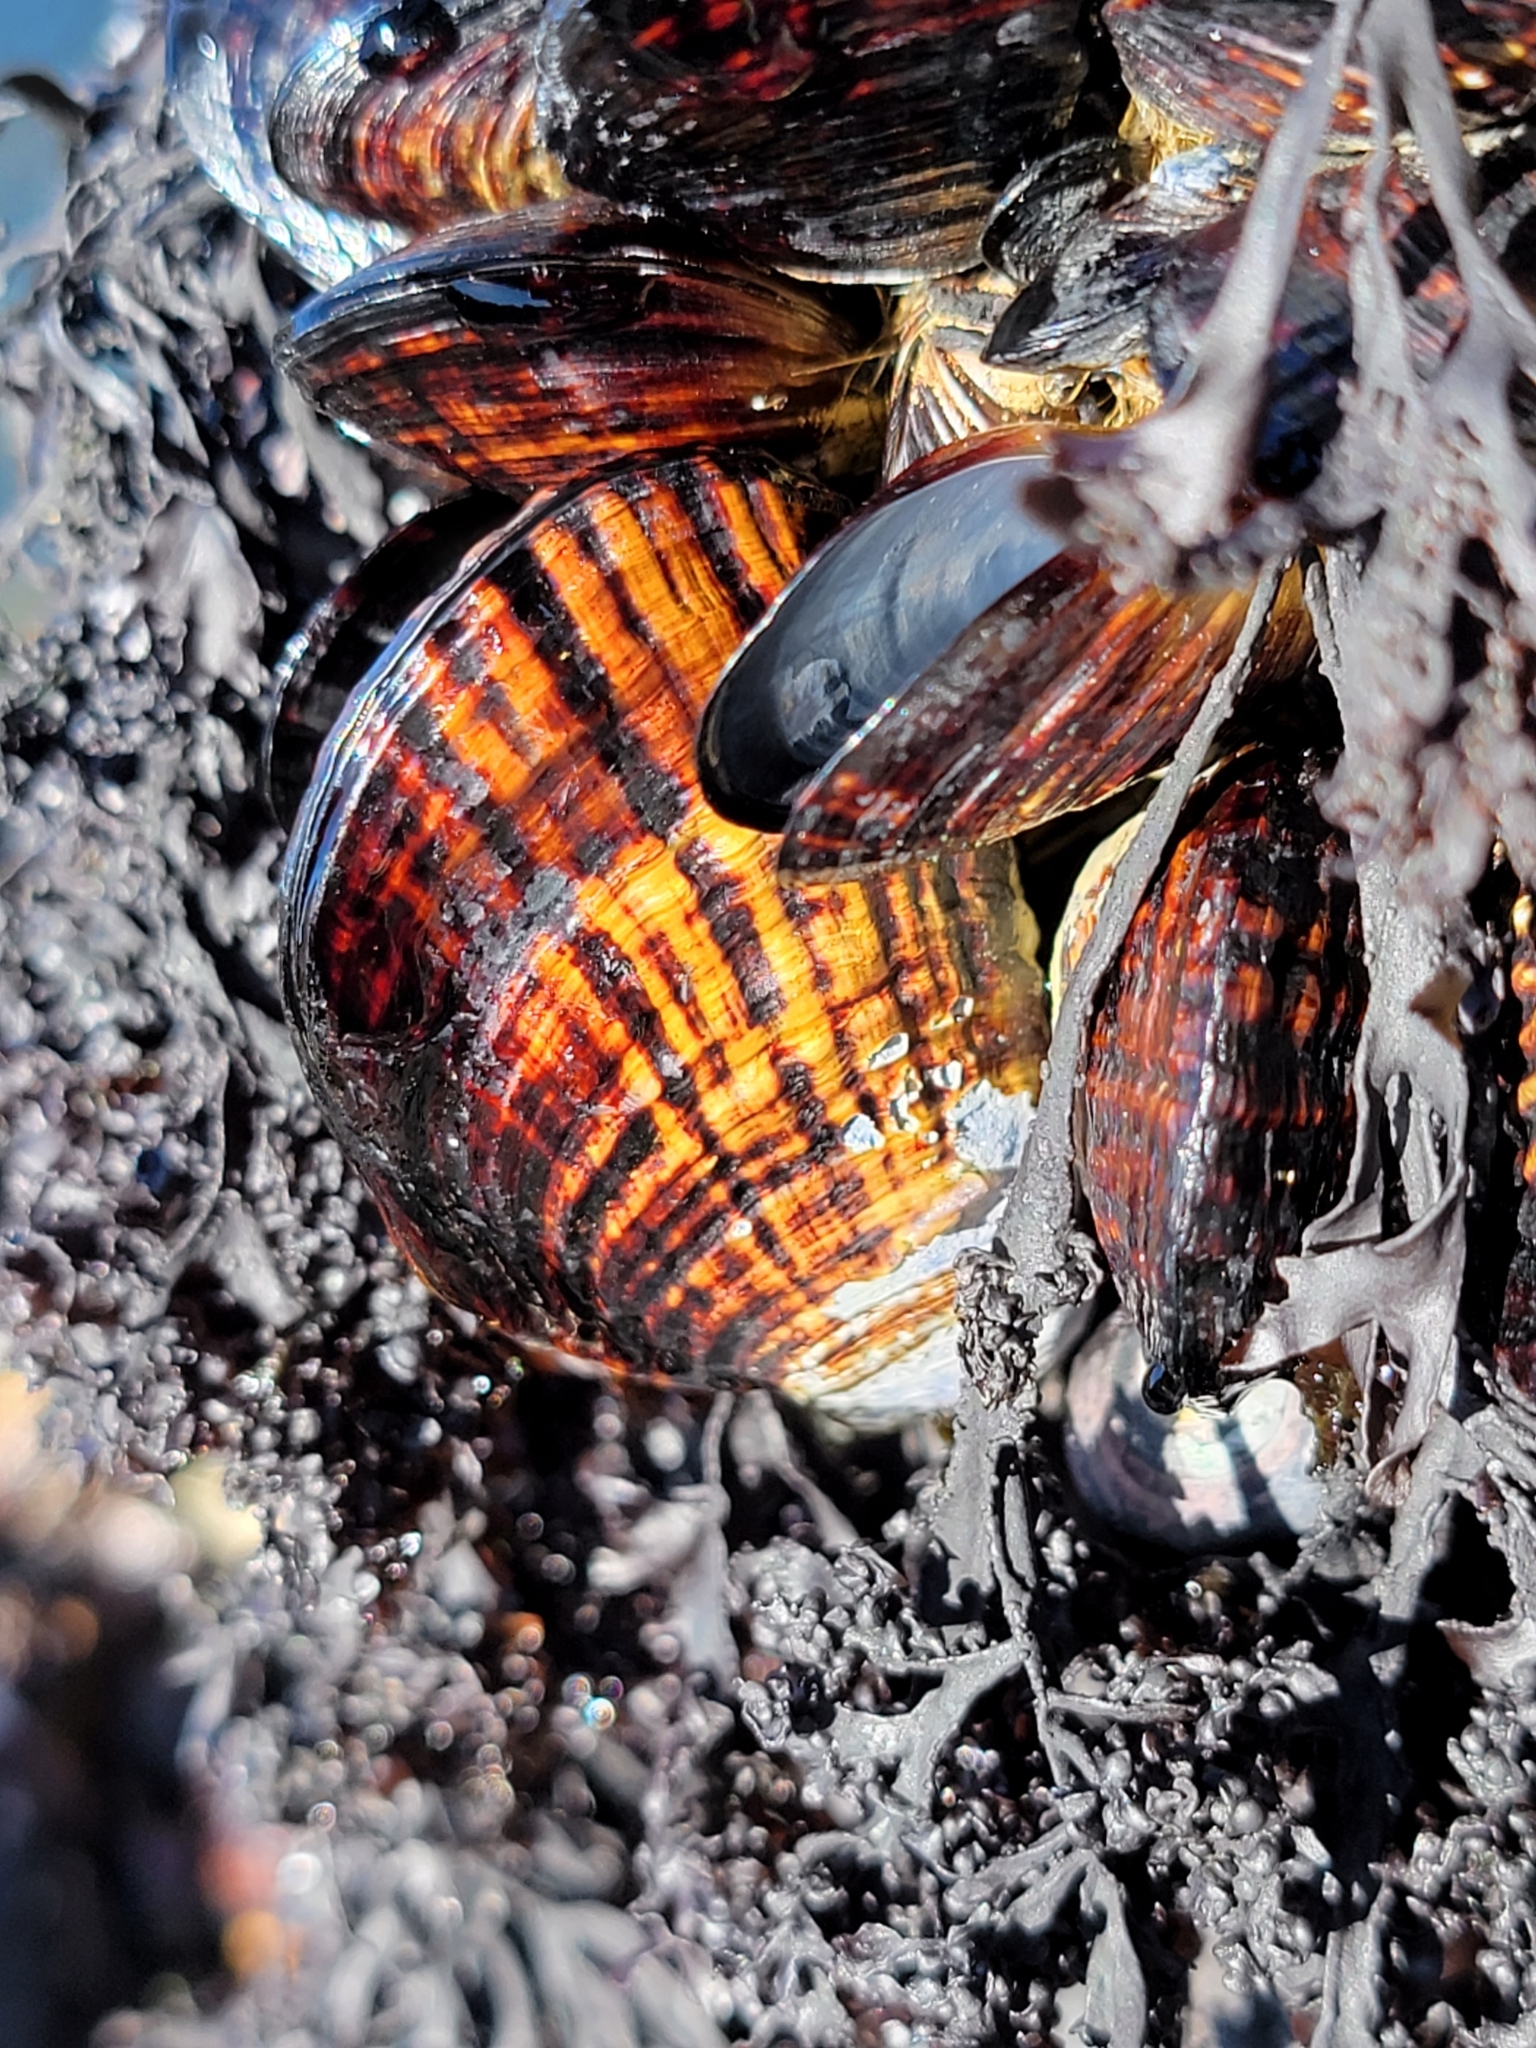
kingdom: Animalia
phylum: Mollusca
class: Bivalvia
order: Mytilida
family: Mytilidae
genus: Mytilus
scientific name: Mytilus californianus
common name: California mussel
